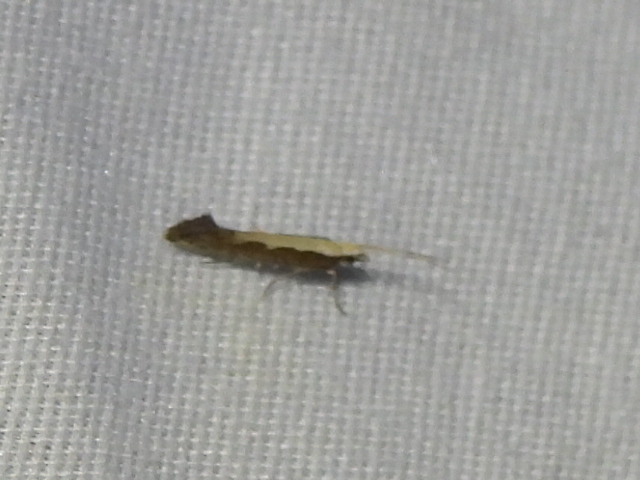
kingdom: Animalia
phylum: Arthropoda
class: Insecta
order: Lepidoptera
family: Plutellidae
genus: Plutella
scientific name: Plutella xylostella
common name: Diamond-back moth
